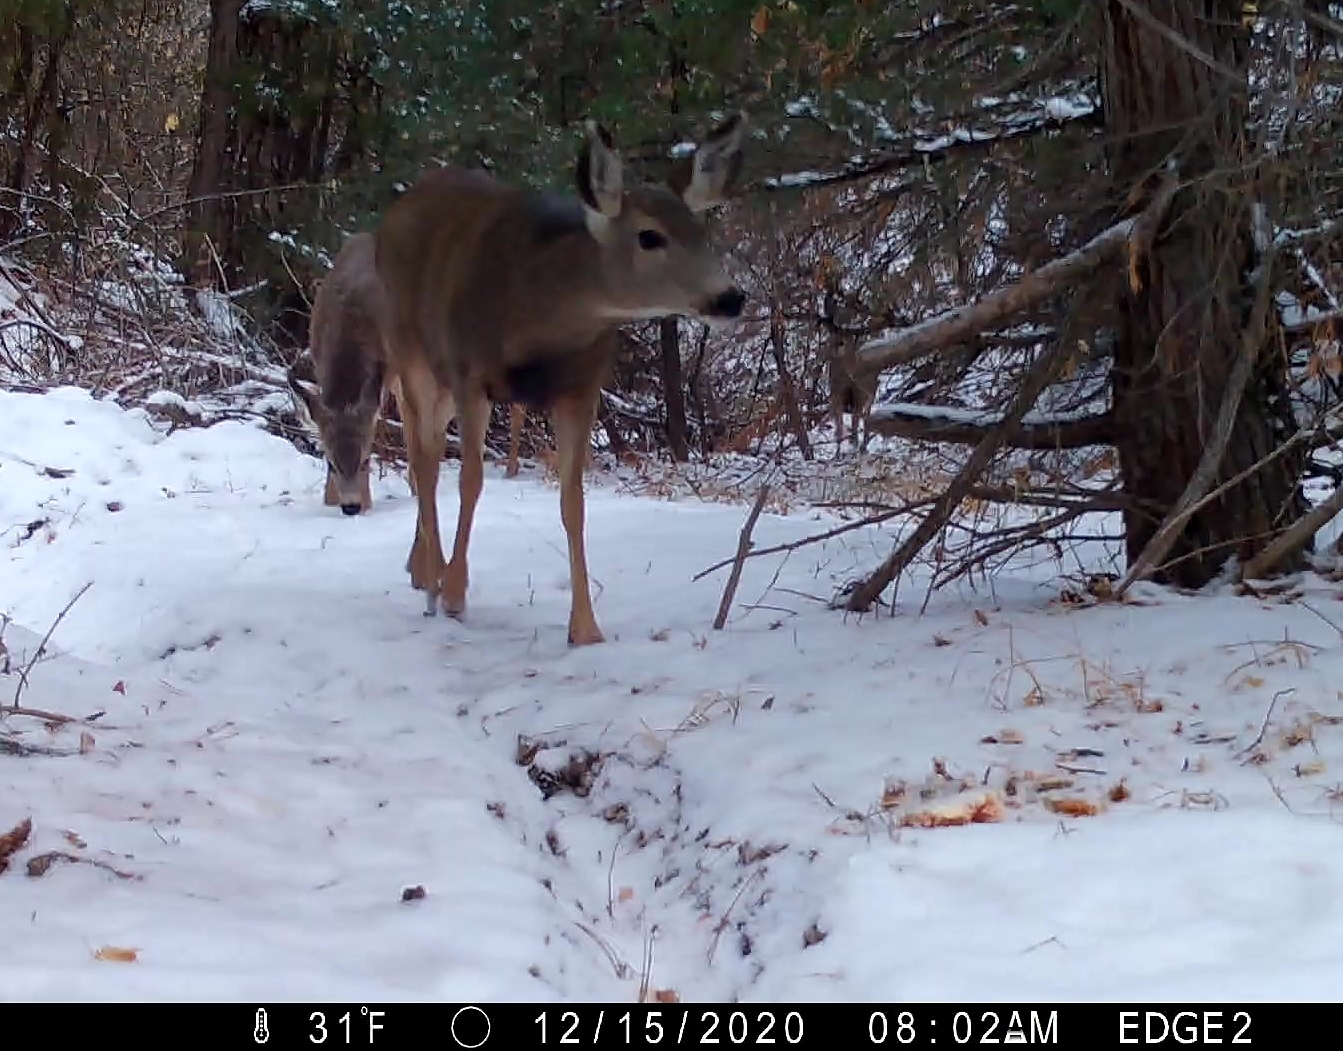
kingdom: Animalia
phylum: Chordata
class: Mammalia
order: Artiodactyla
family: Cervidae
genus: Odocoileus
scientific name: Odocoileus hemionus
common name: Mule deer
